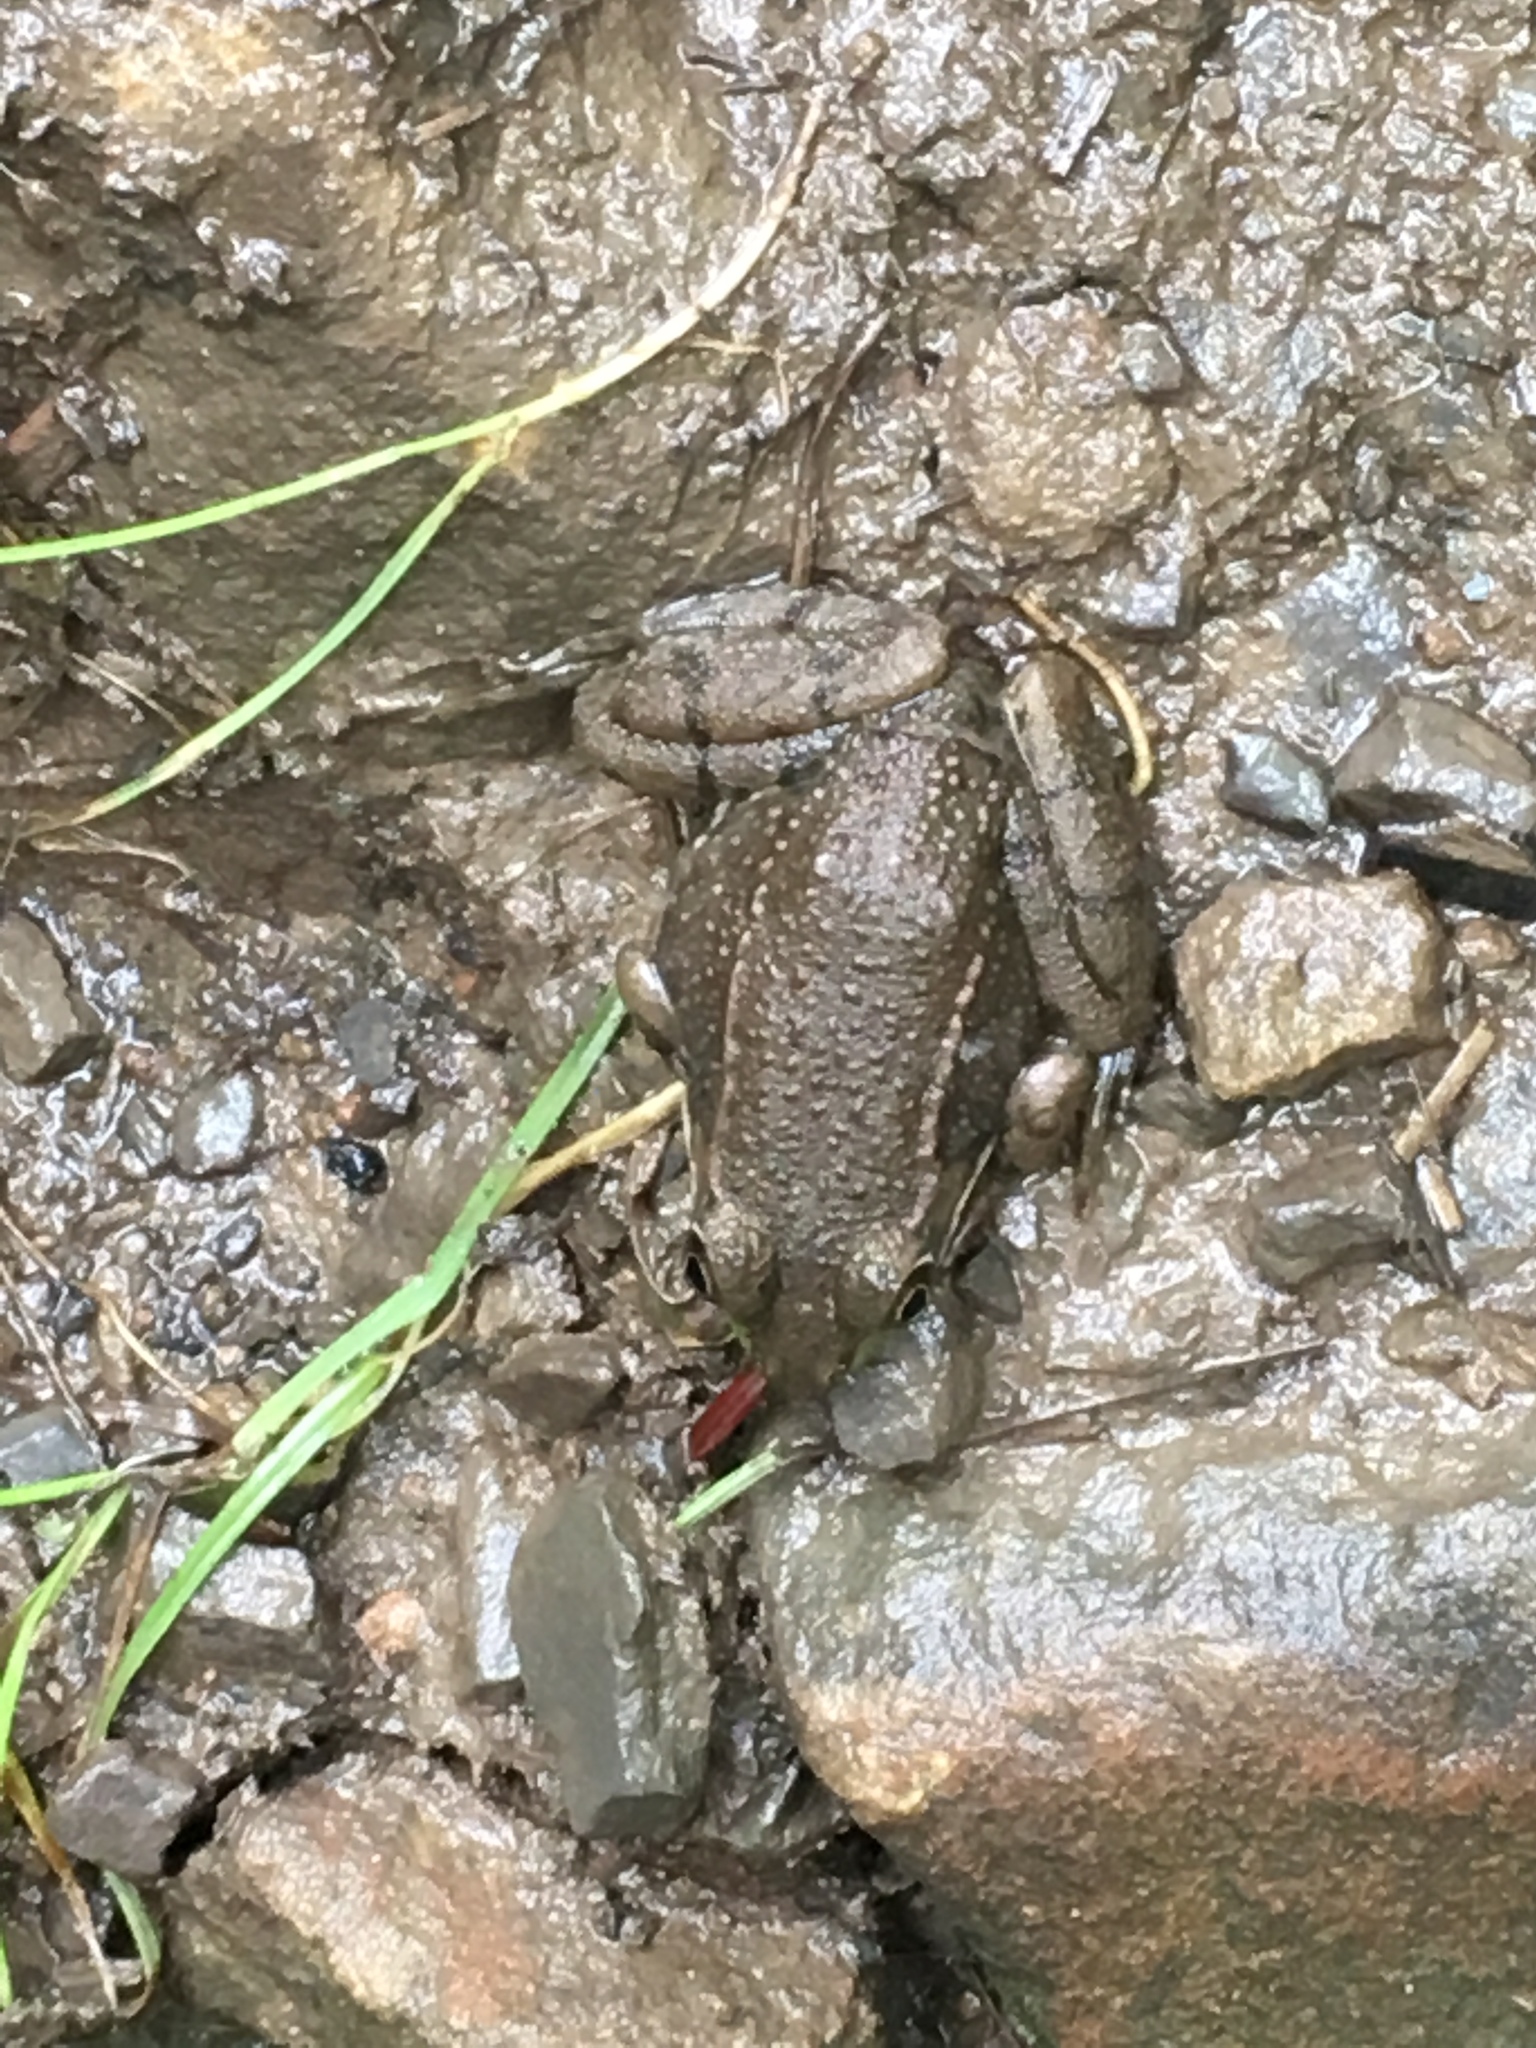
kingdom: Animalia
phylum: Chordata
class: Amphibia
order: Anura
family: Ranidae
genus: Lithobates
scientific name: Lithobates clamitans
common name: Green frog
